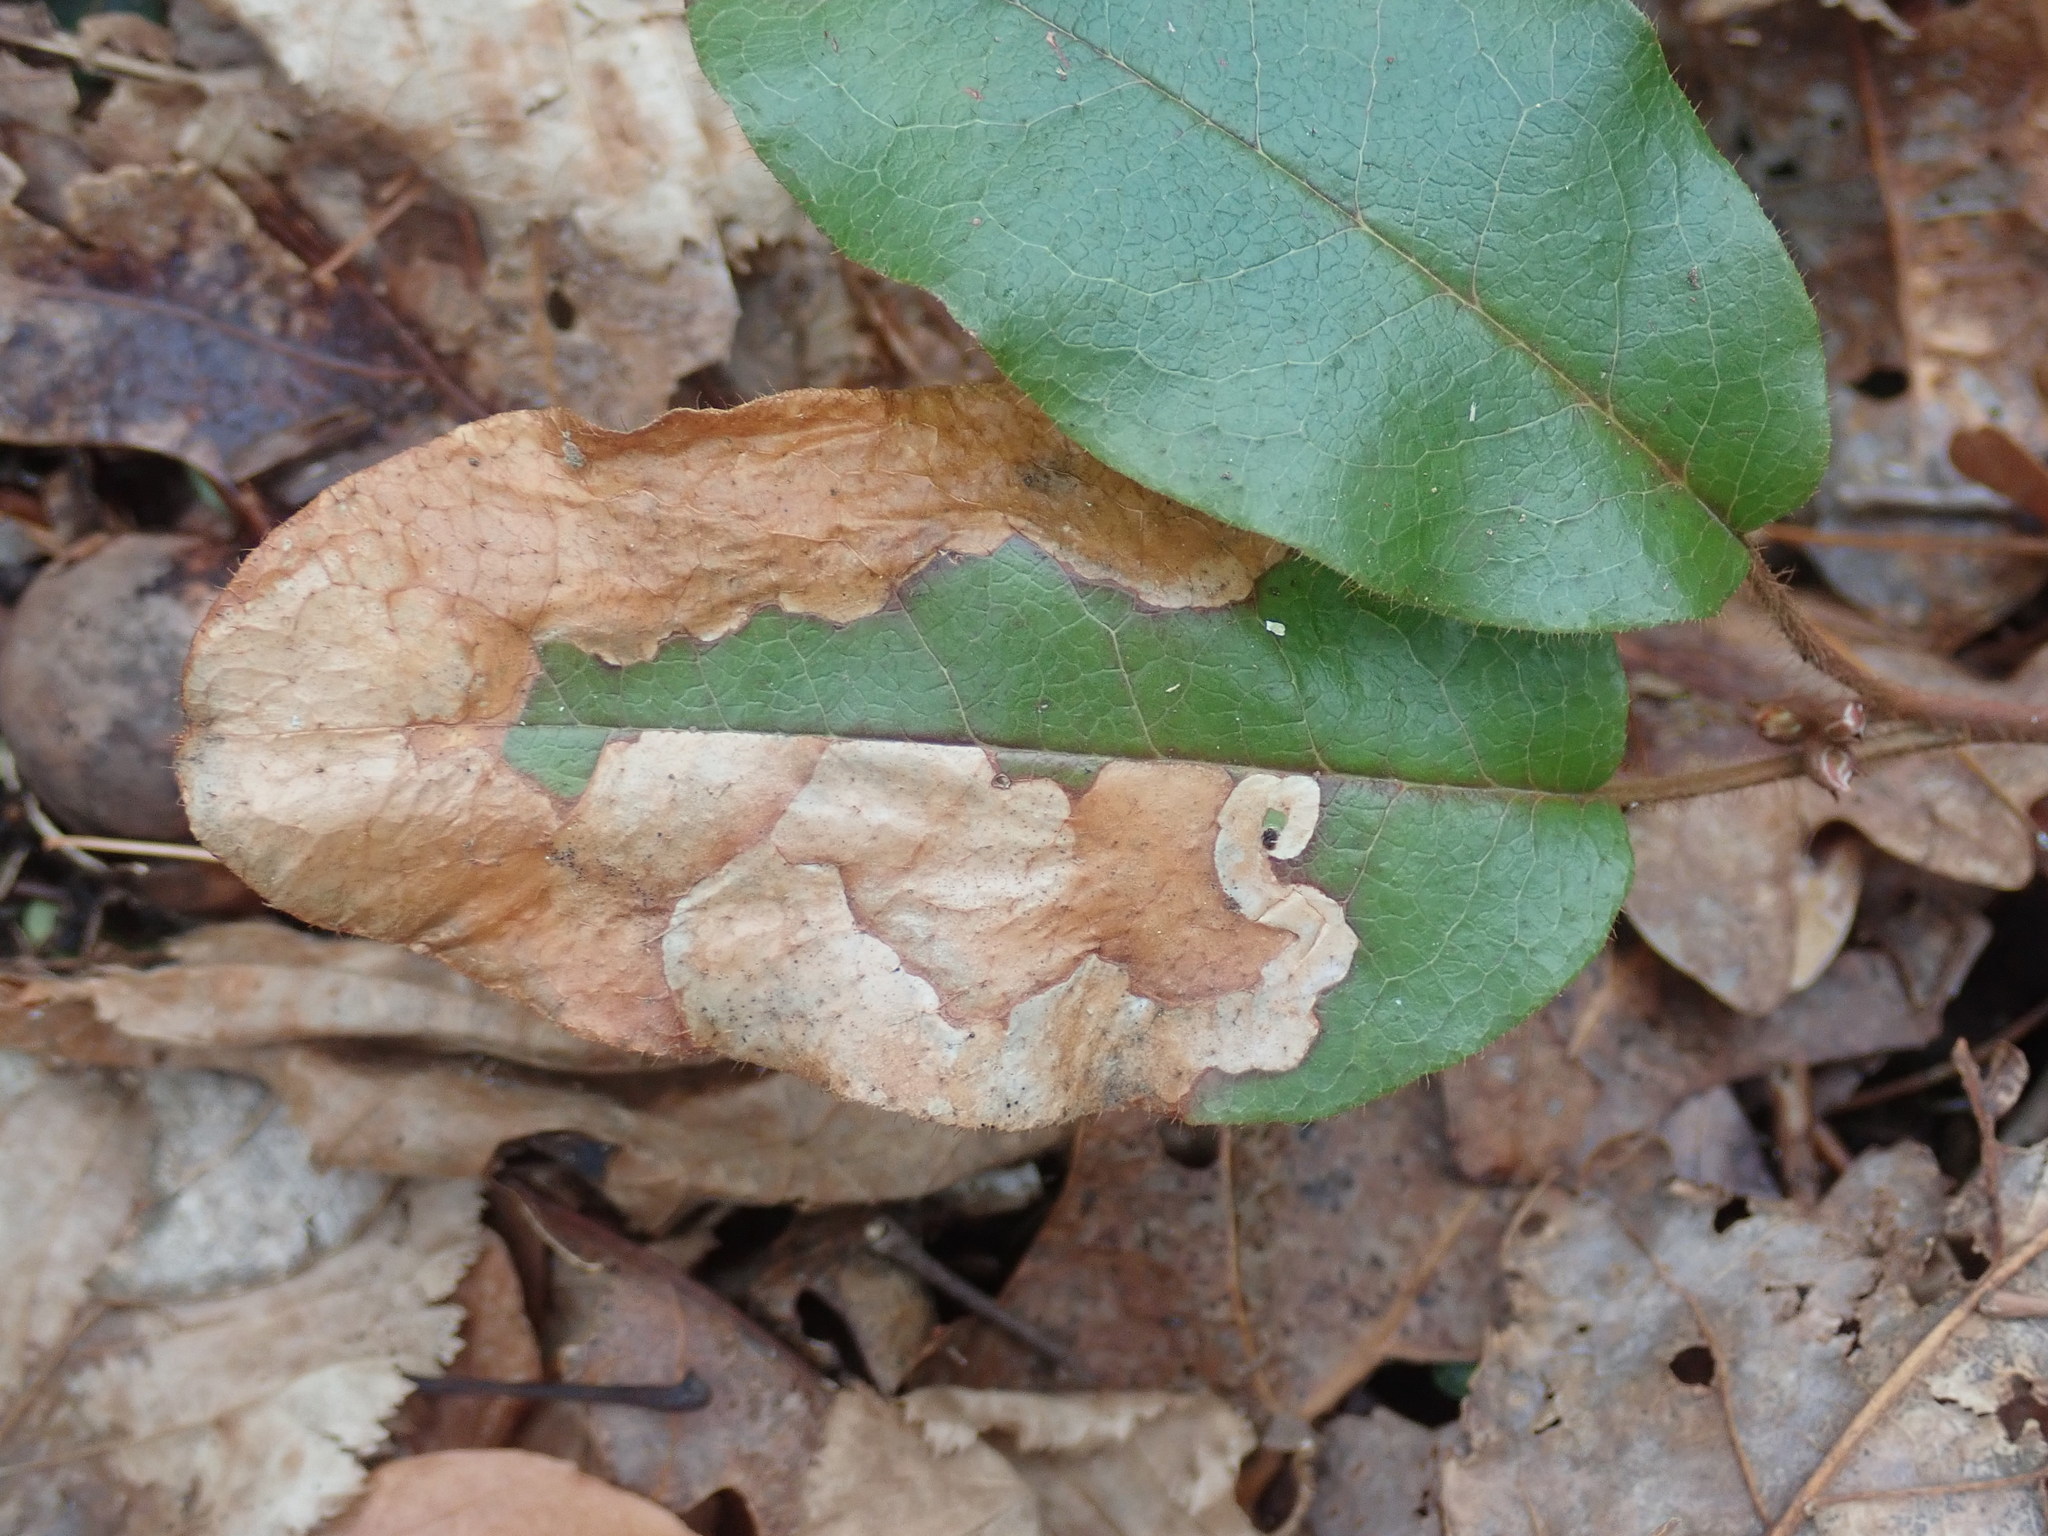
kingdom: Animalia
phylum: Arthropoda
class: Insecta
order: Coleoptera
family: Buprestidae
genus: Brachys
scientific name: Brachys
